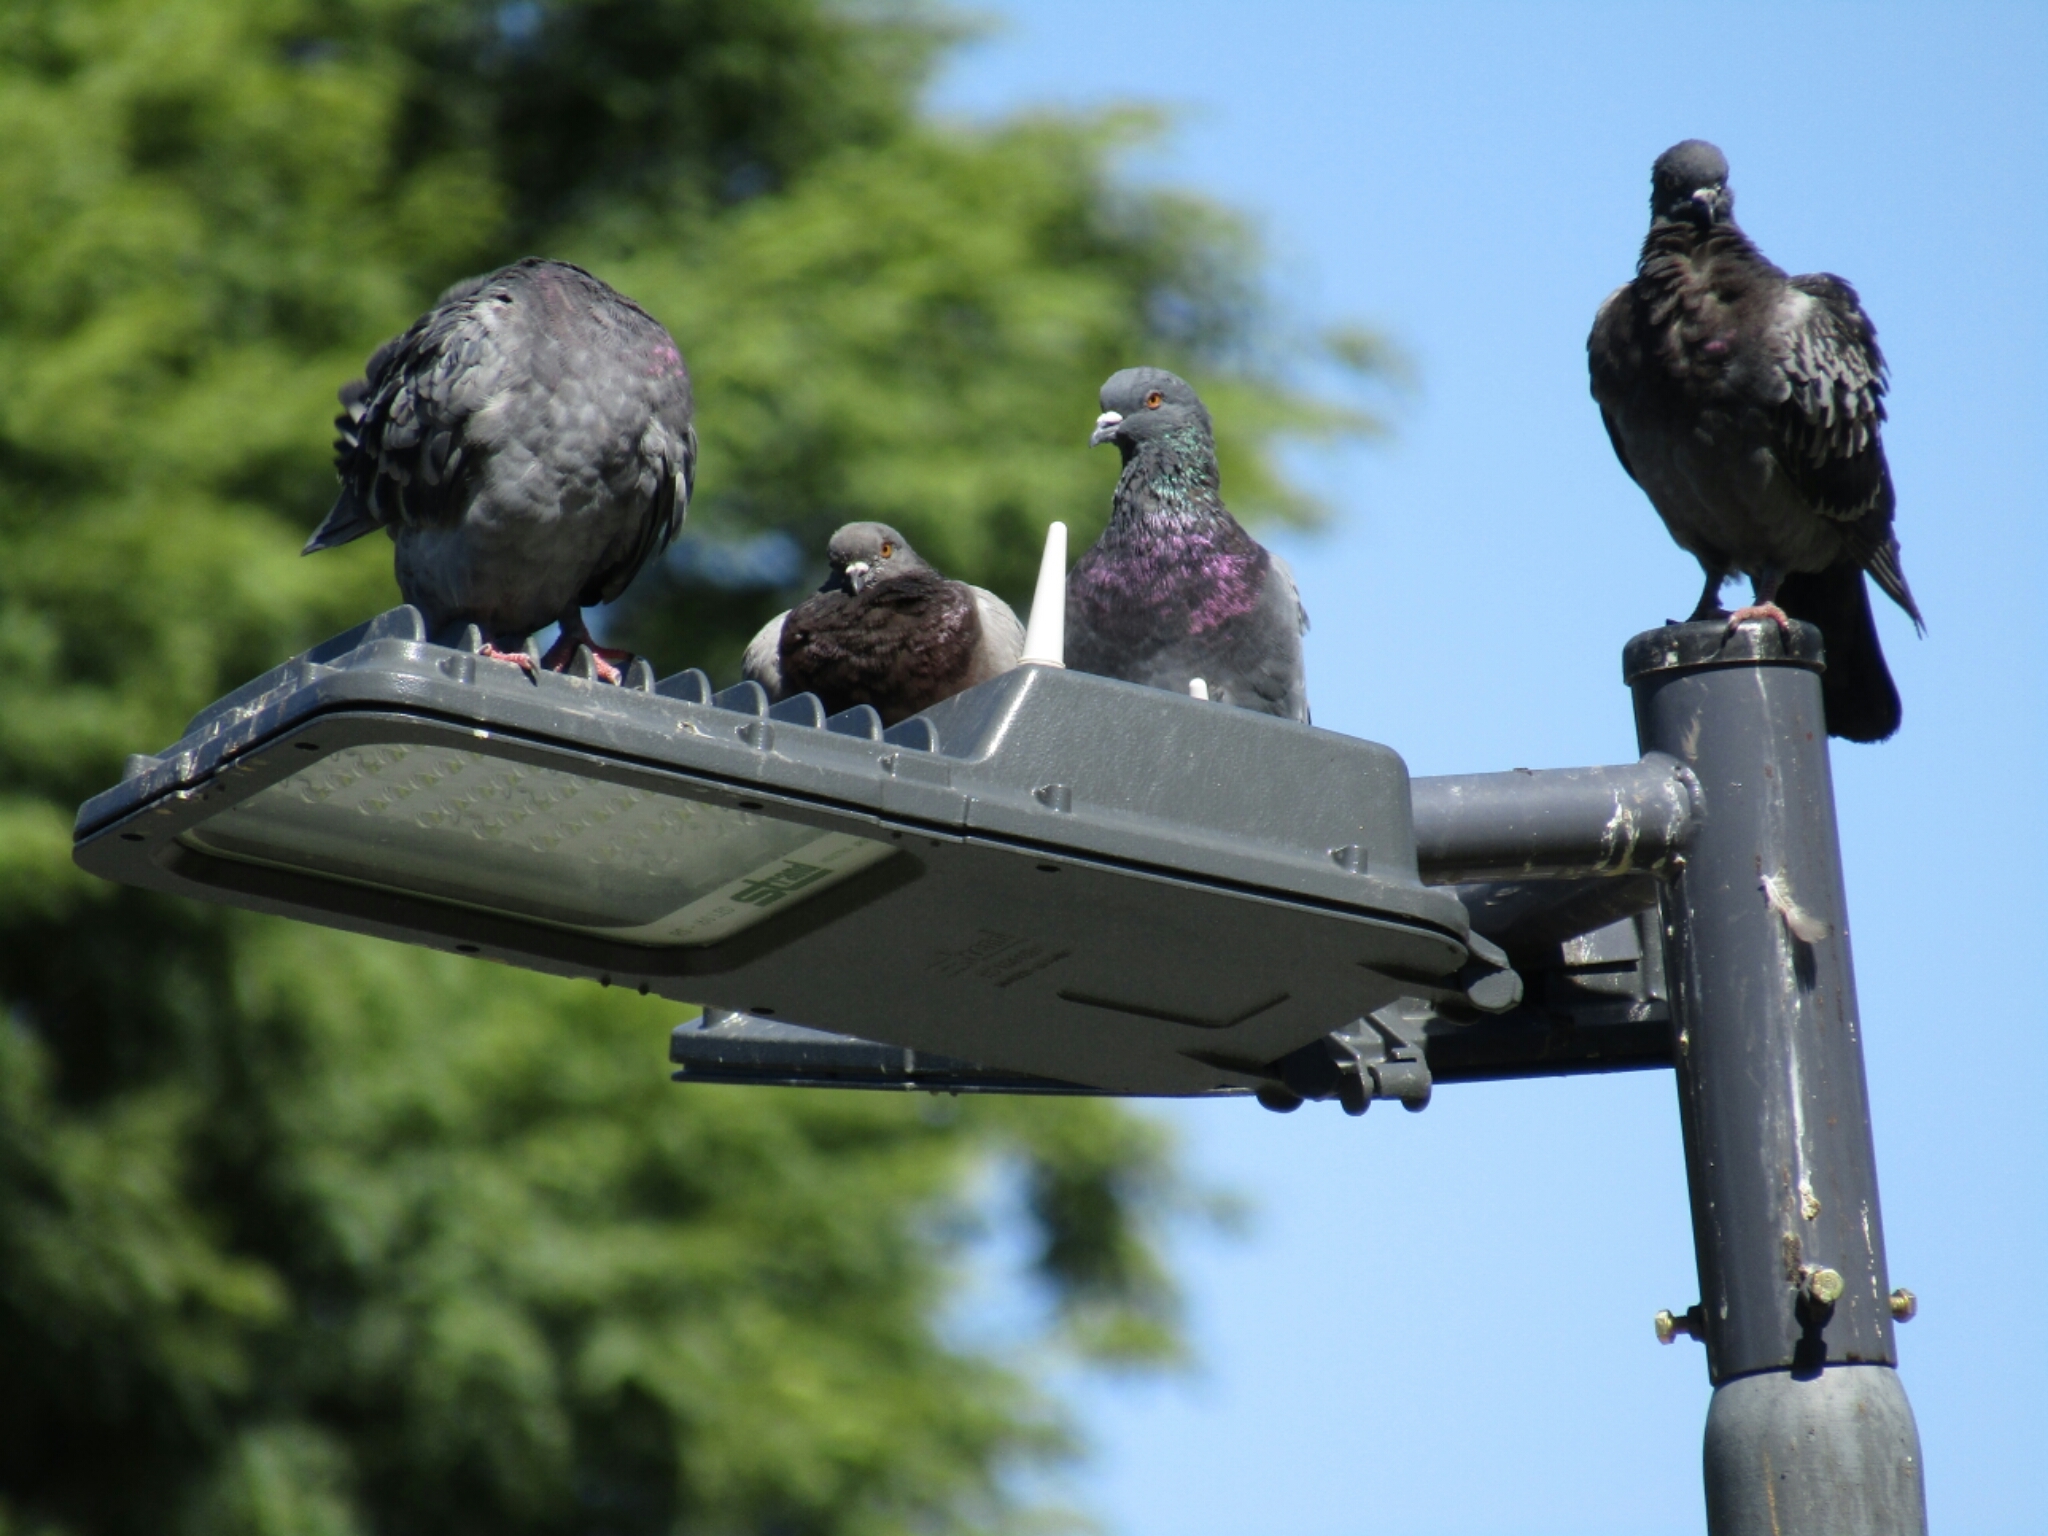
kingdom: Animalia
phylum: Chordata
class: Aves
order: Columbiformes
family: Columbidae
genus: Columba
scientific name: Columba livia
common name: Rock pigeon
